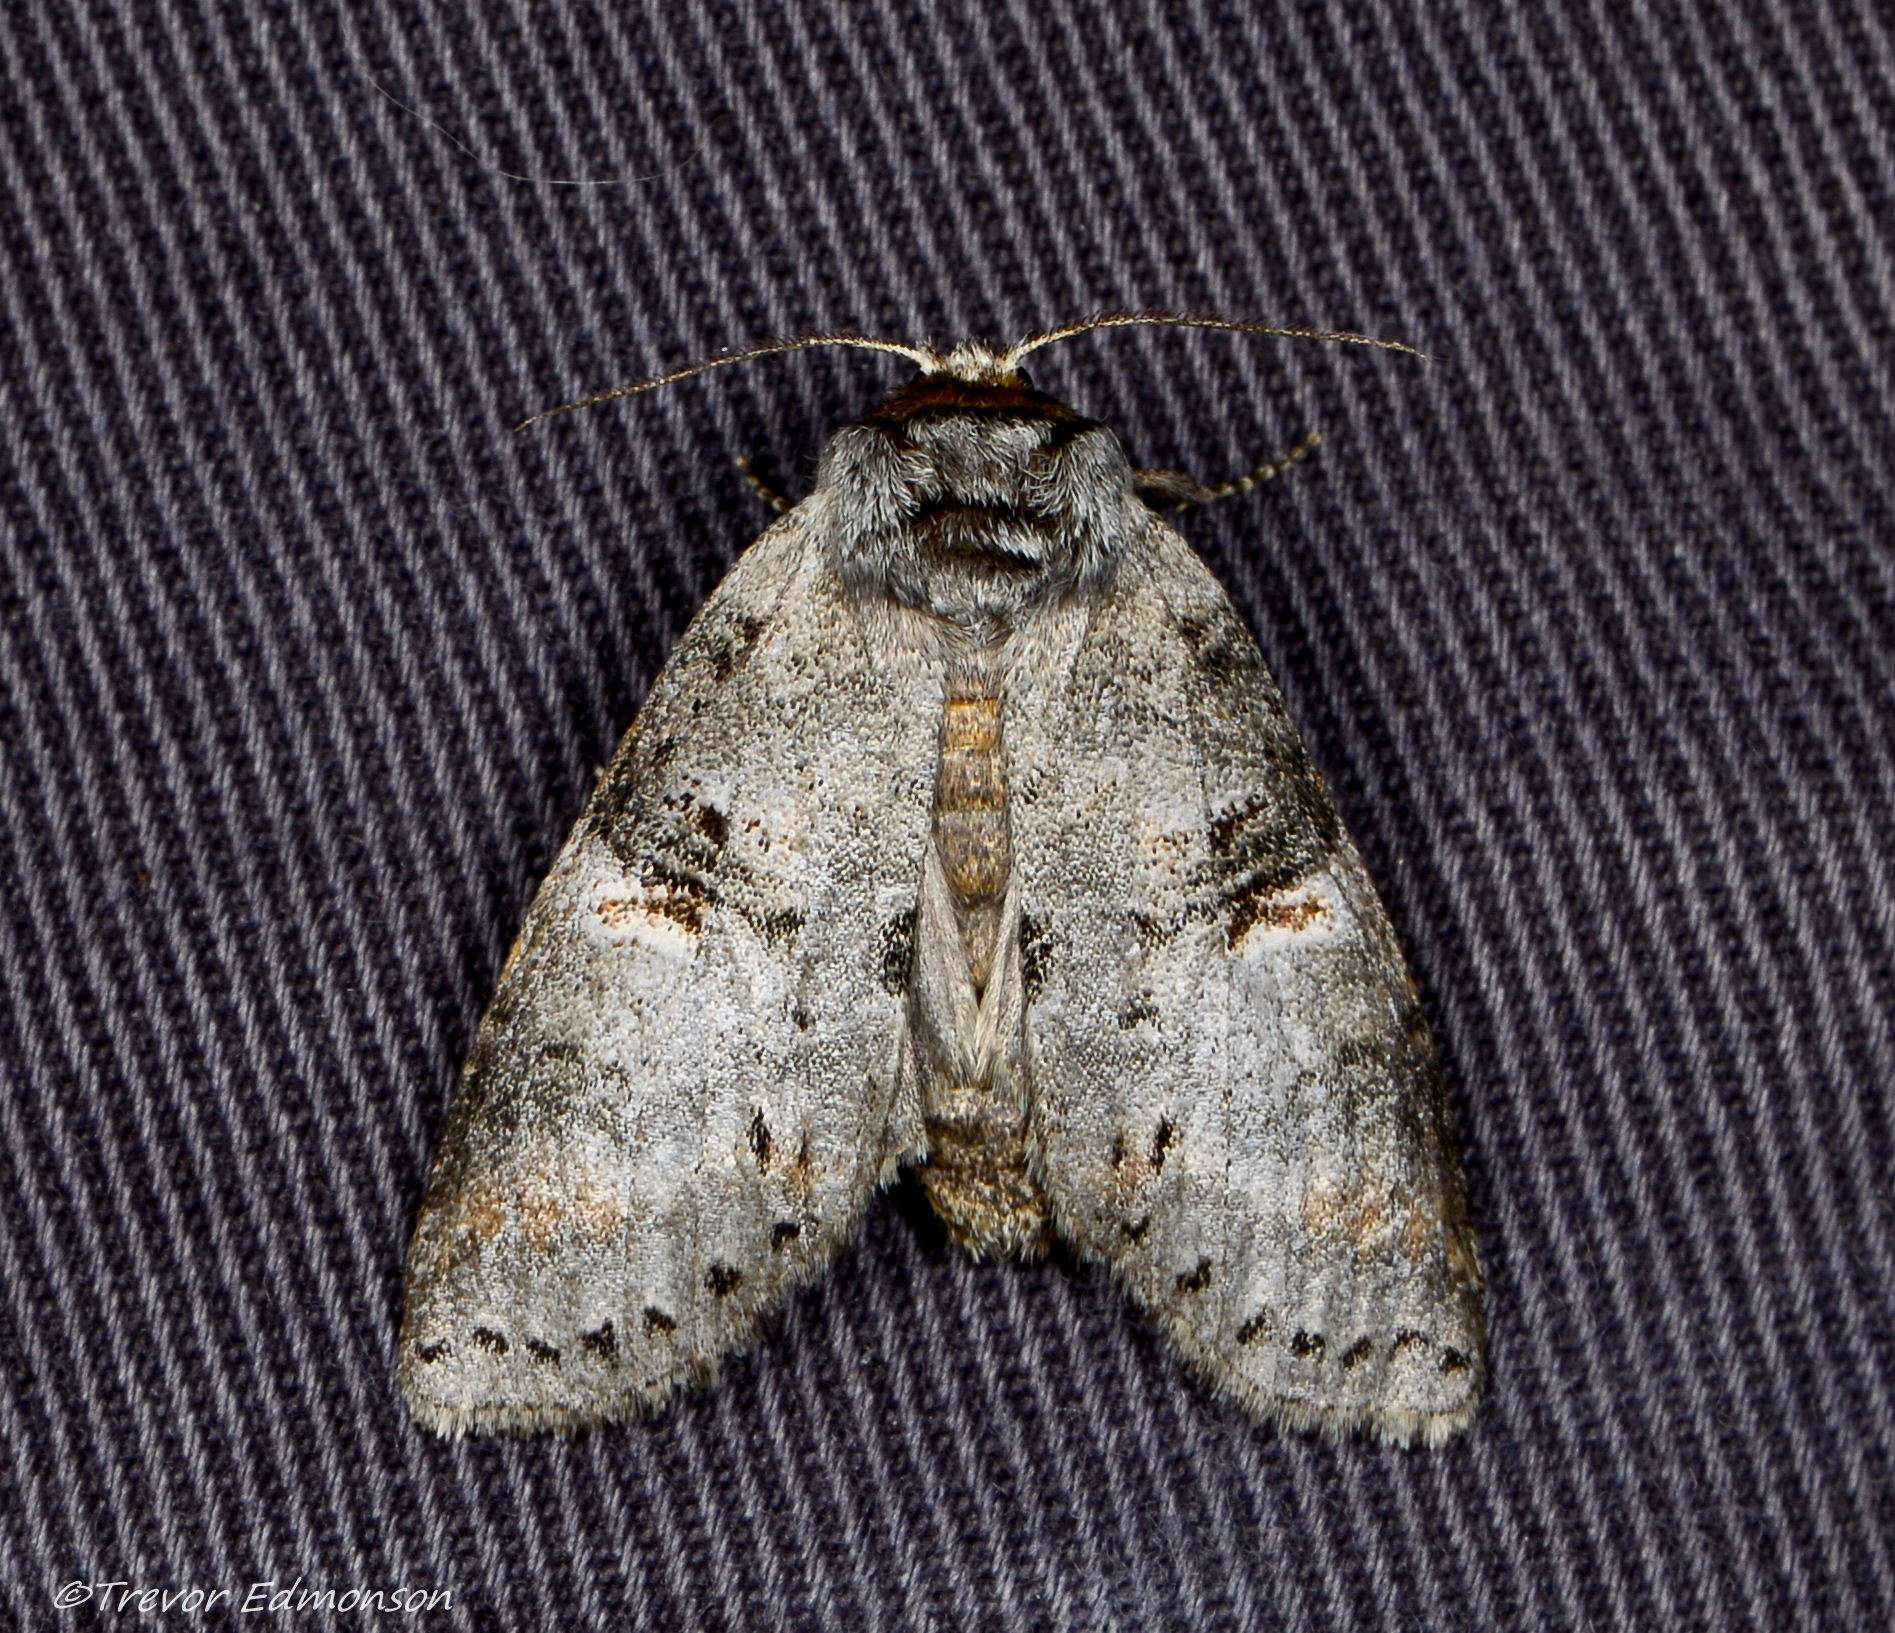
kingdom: Animalia
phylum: Arthropoda
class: Insecta
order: Lepidoptera
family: Notodontidae
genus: Ellida
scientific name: Ellida caniplaga
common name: Linden prominent
